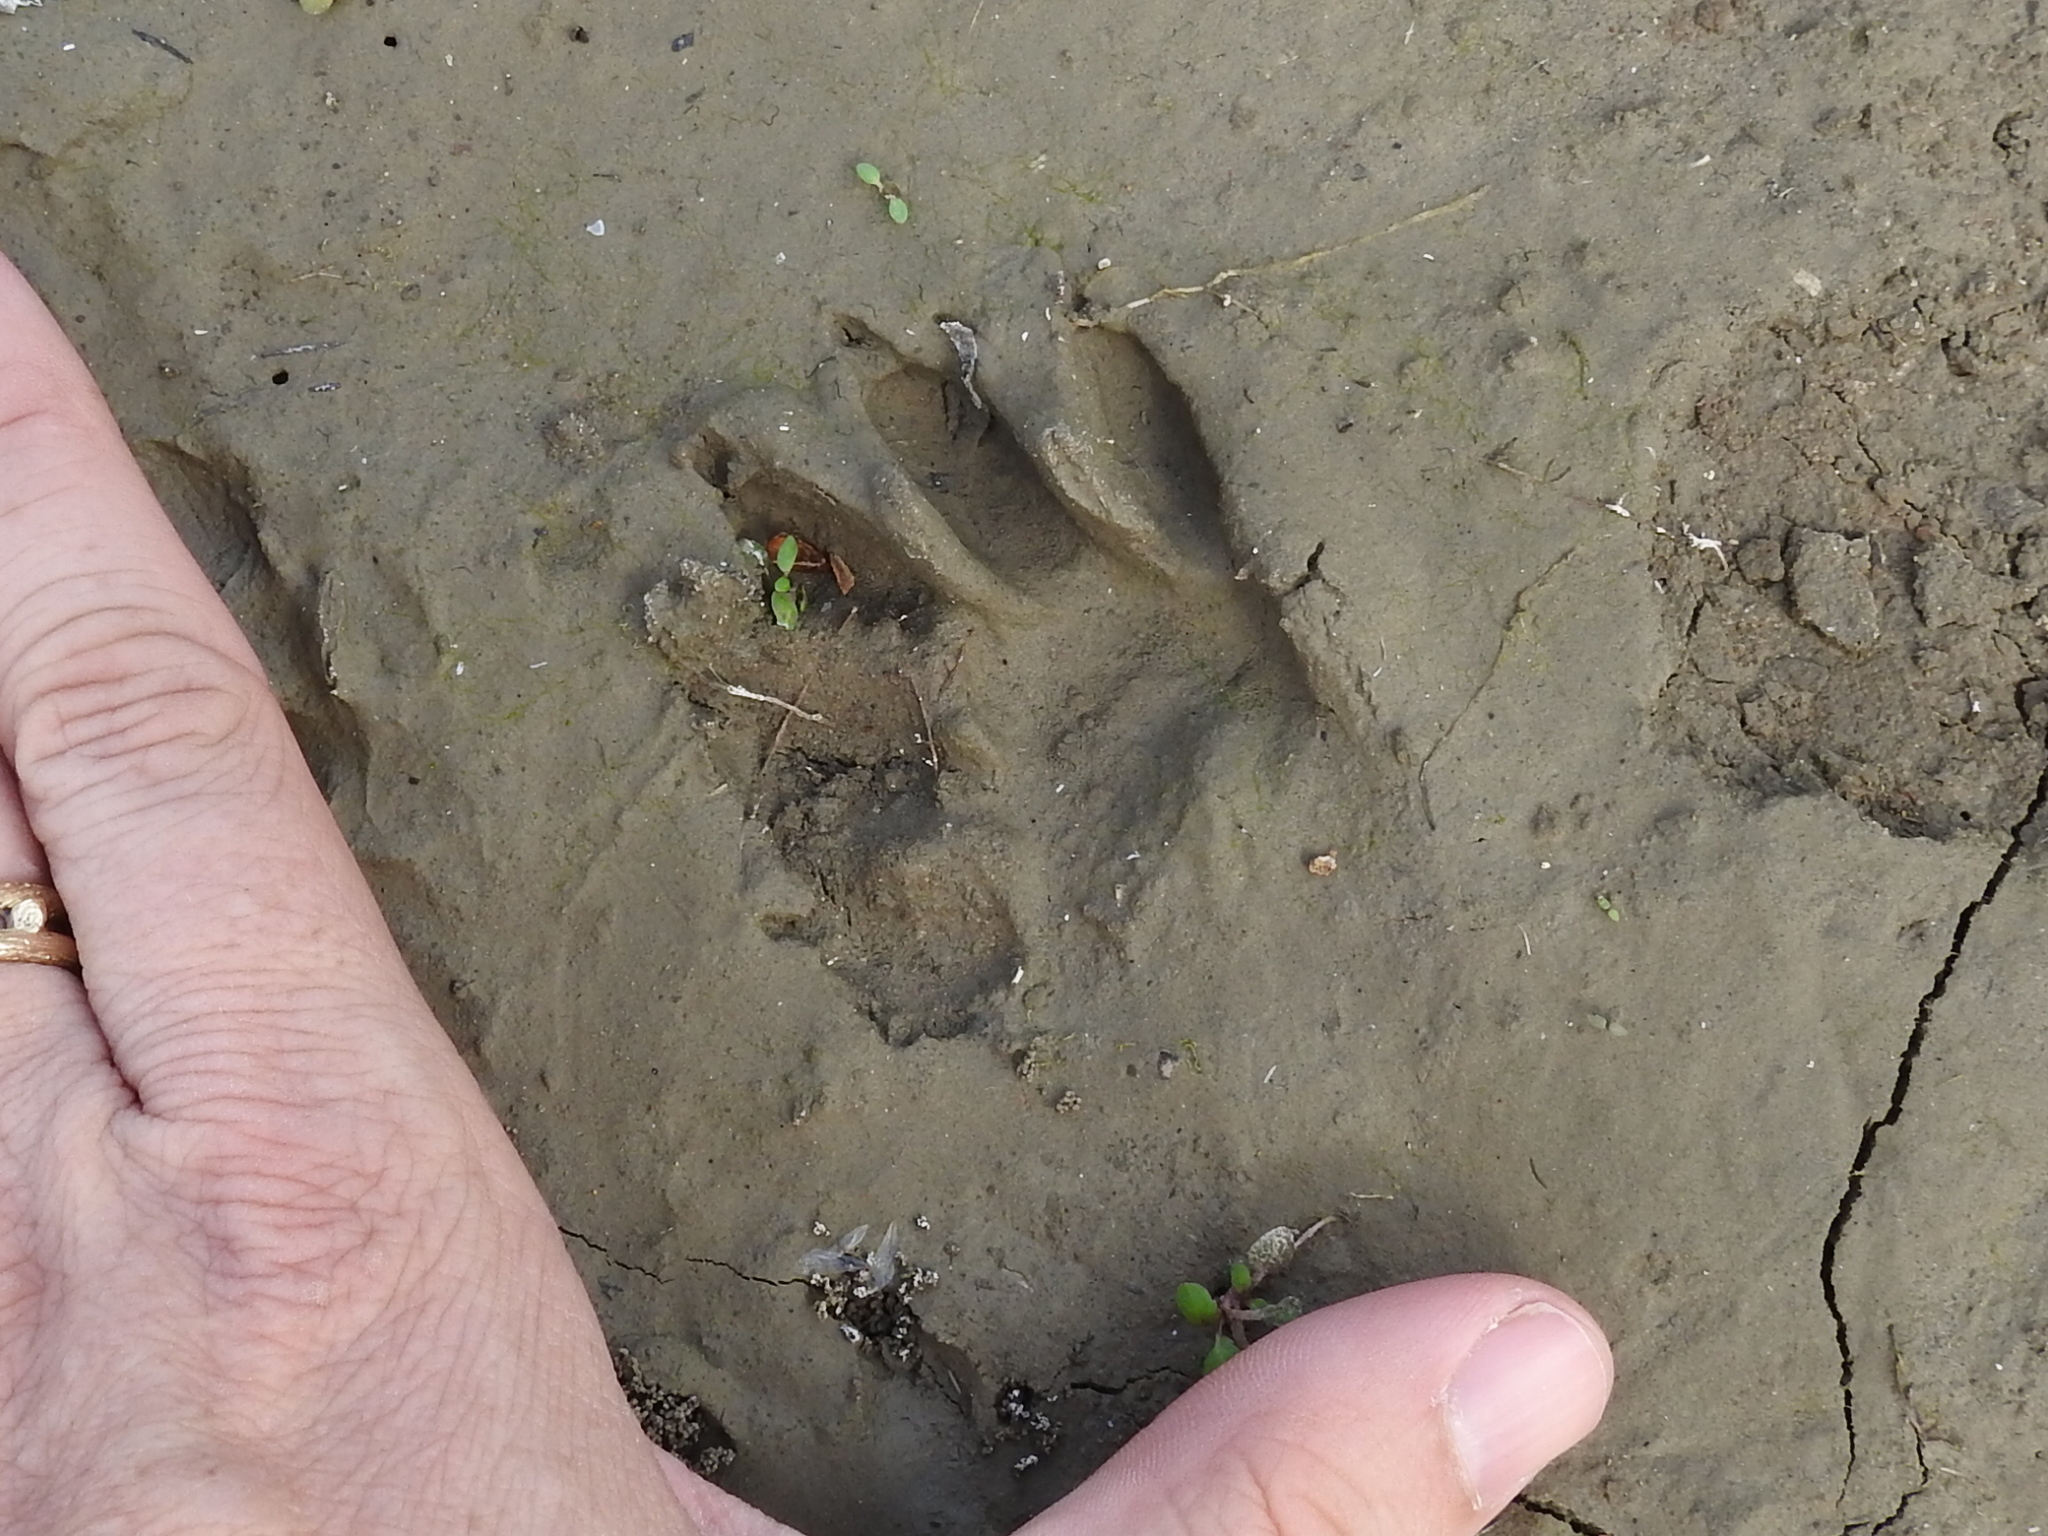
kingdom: Animalia
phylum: Chordata
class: Mammalia
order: Carnivora
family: Procyonidae
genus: Procyon
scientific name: Procyon lotor
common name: Raccoon
